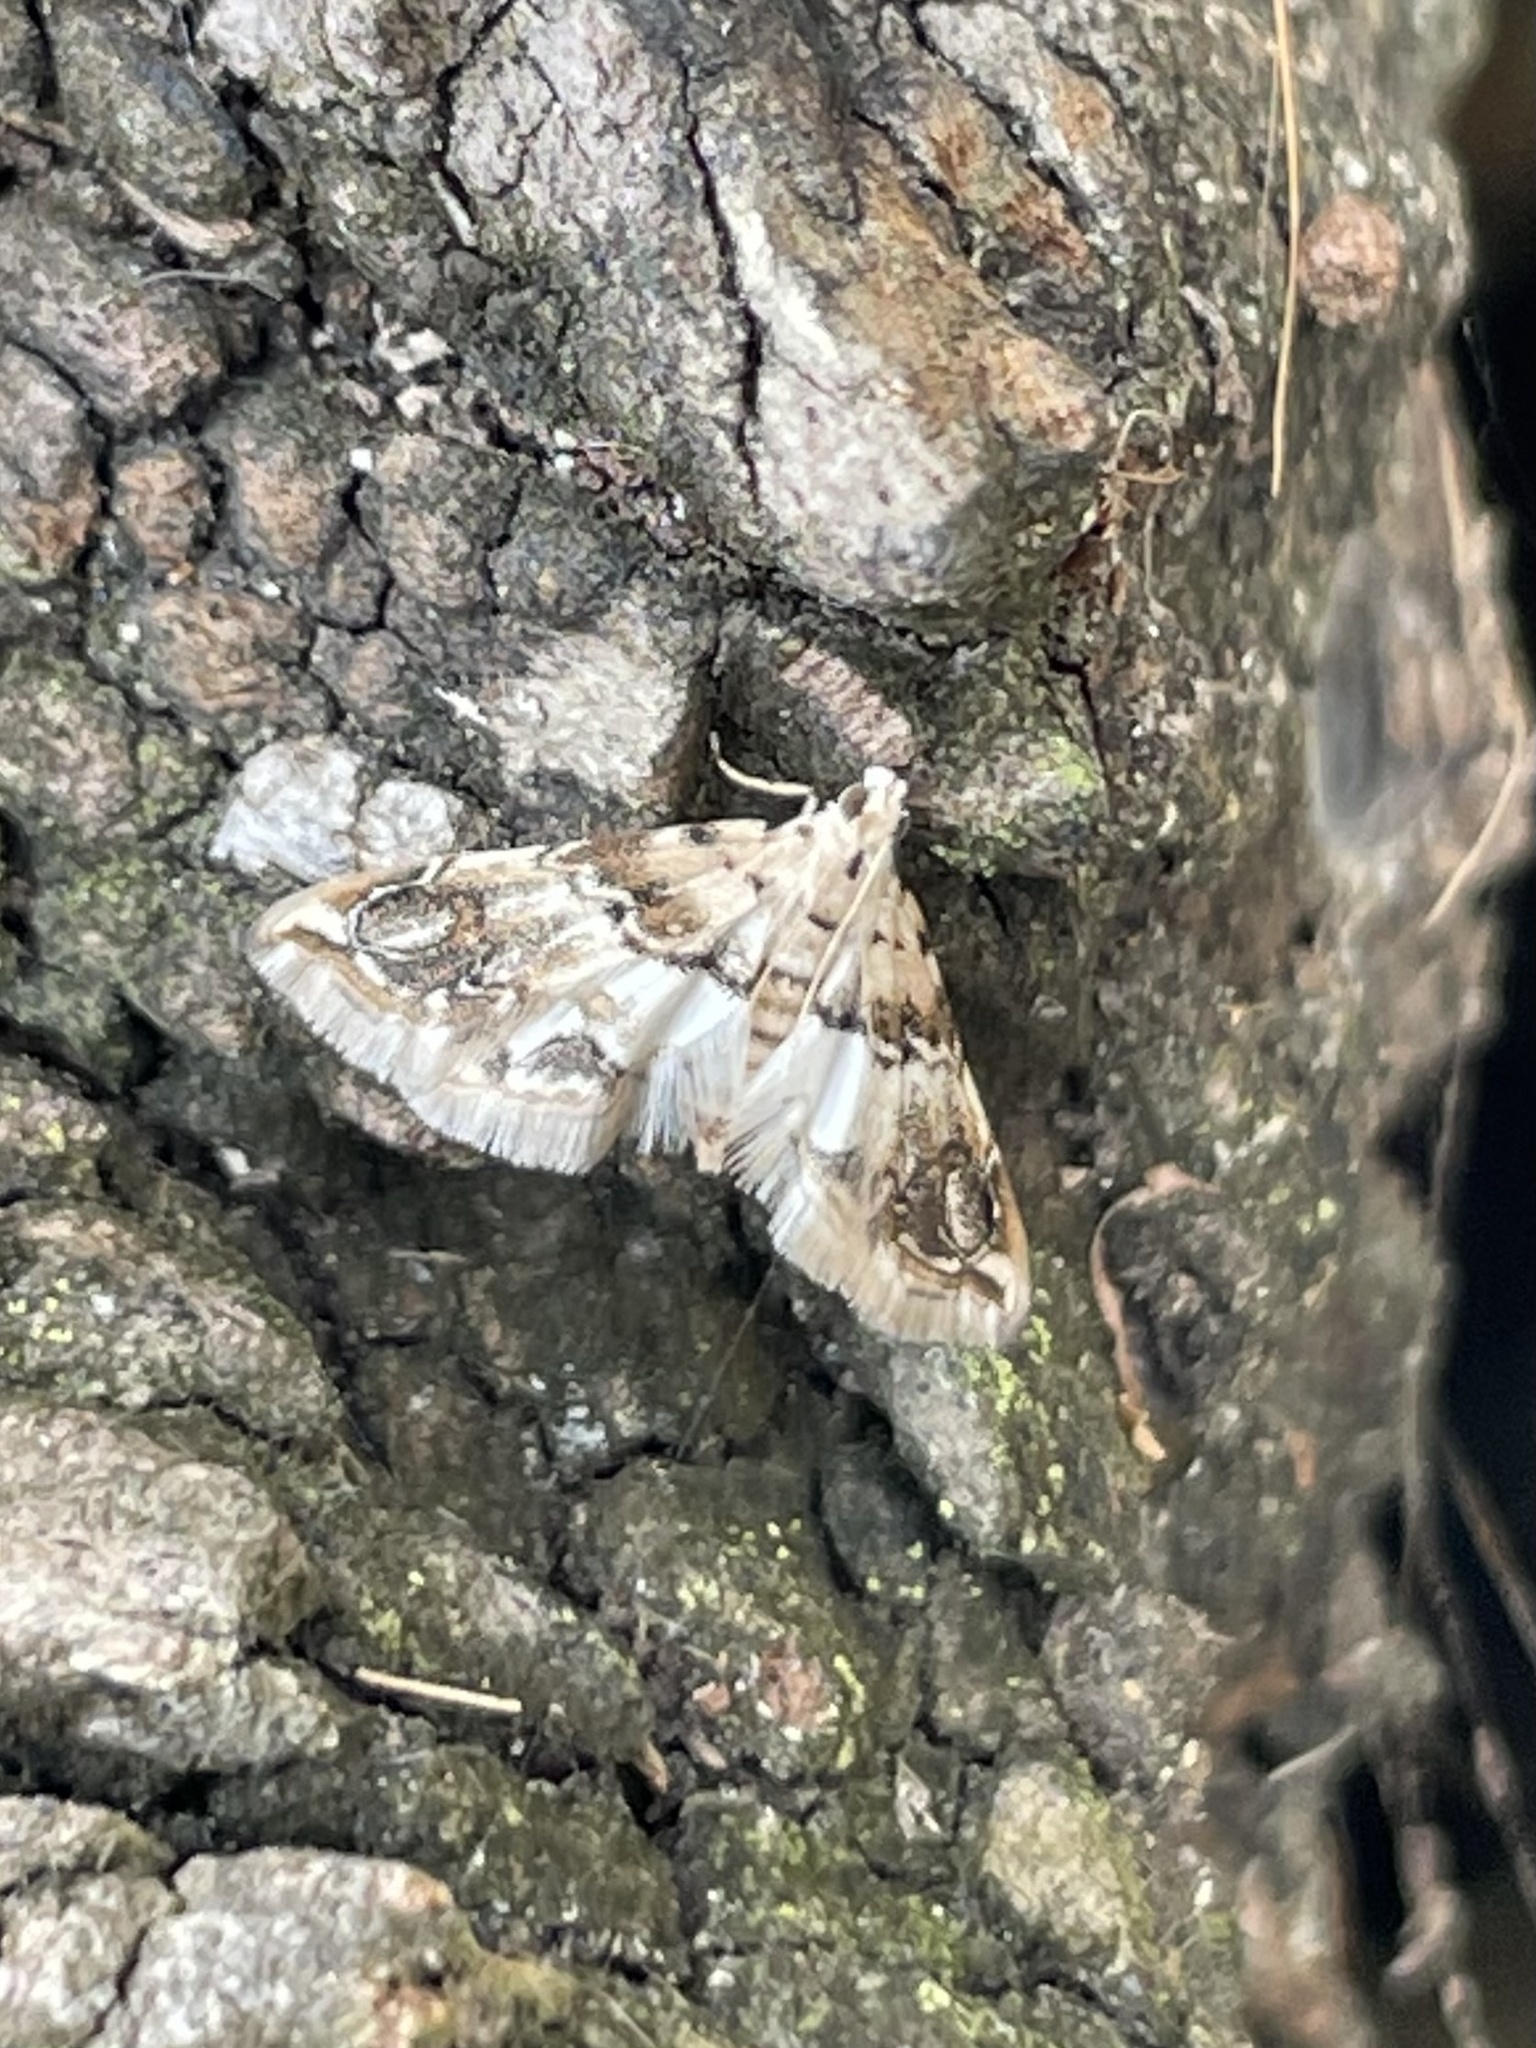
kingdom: Animalia
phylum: Arthropoda
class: Insecta
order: Lepidoptera
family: Crambidae
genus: Oxyelophila
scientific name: Oxyelophila callista
